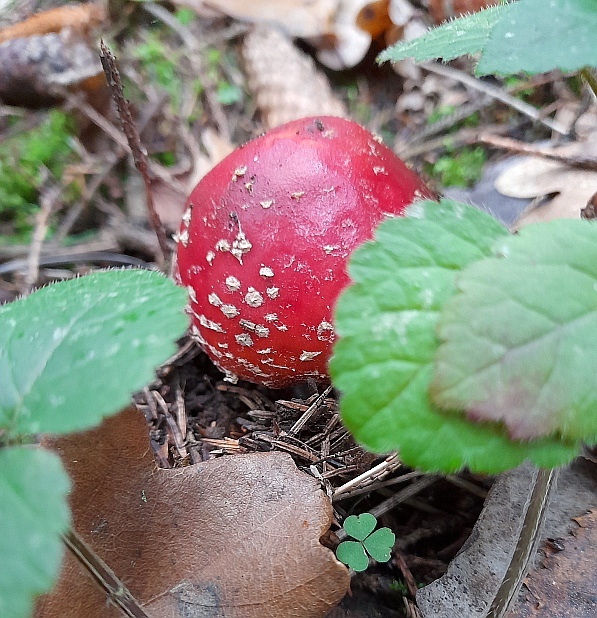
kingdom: Fungi
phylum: Basidiomycota
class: Agaricomycetes
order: Agaricales
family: Amanitaceae
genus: Amanita
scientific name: Amanita muscaria
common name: Fly agaric
